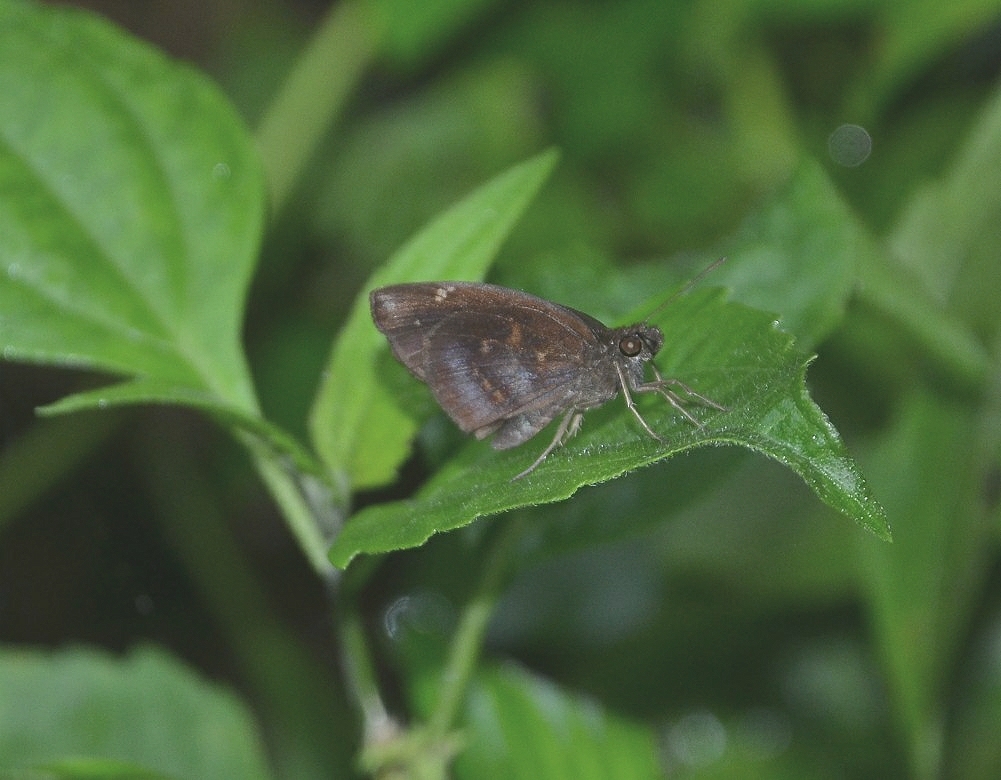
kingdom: Animalia
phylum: Arthropoda
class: Insecta
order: Lepidoptera
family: Hesperiidae
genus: Gangara
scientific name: Gangara thyrsis
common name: Giant redeye
